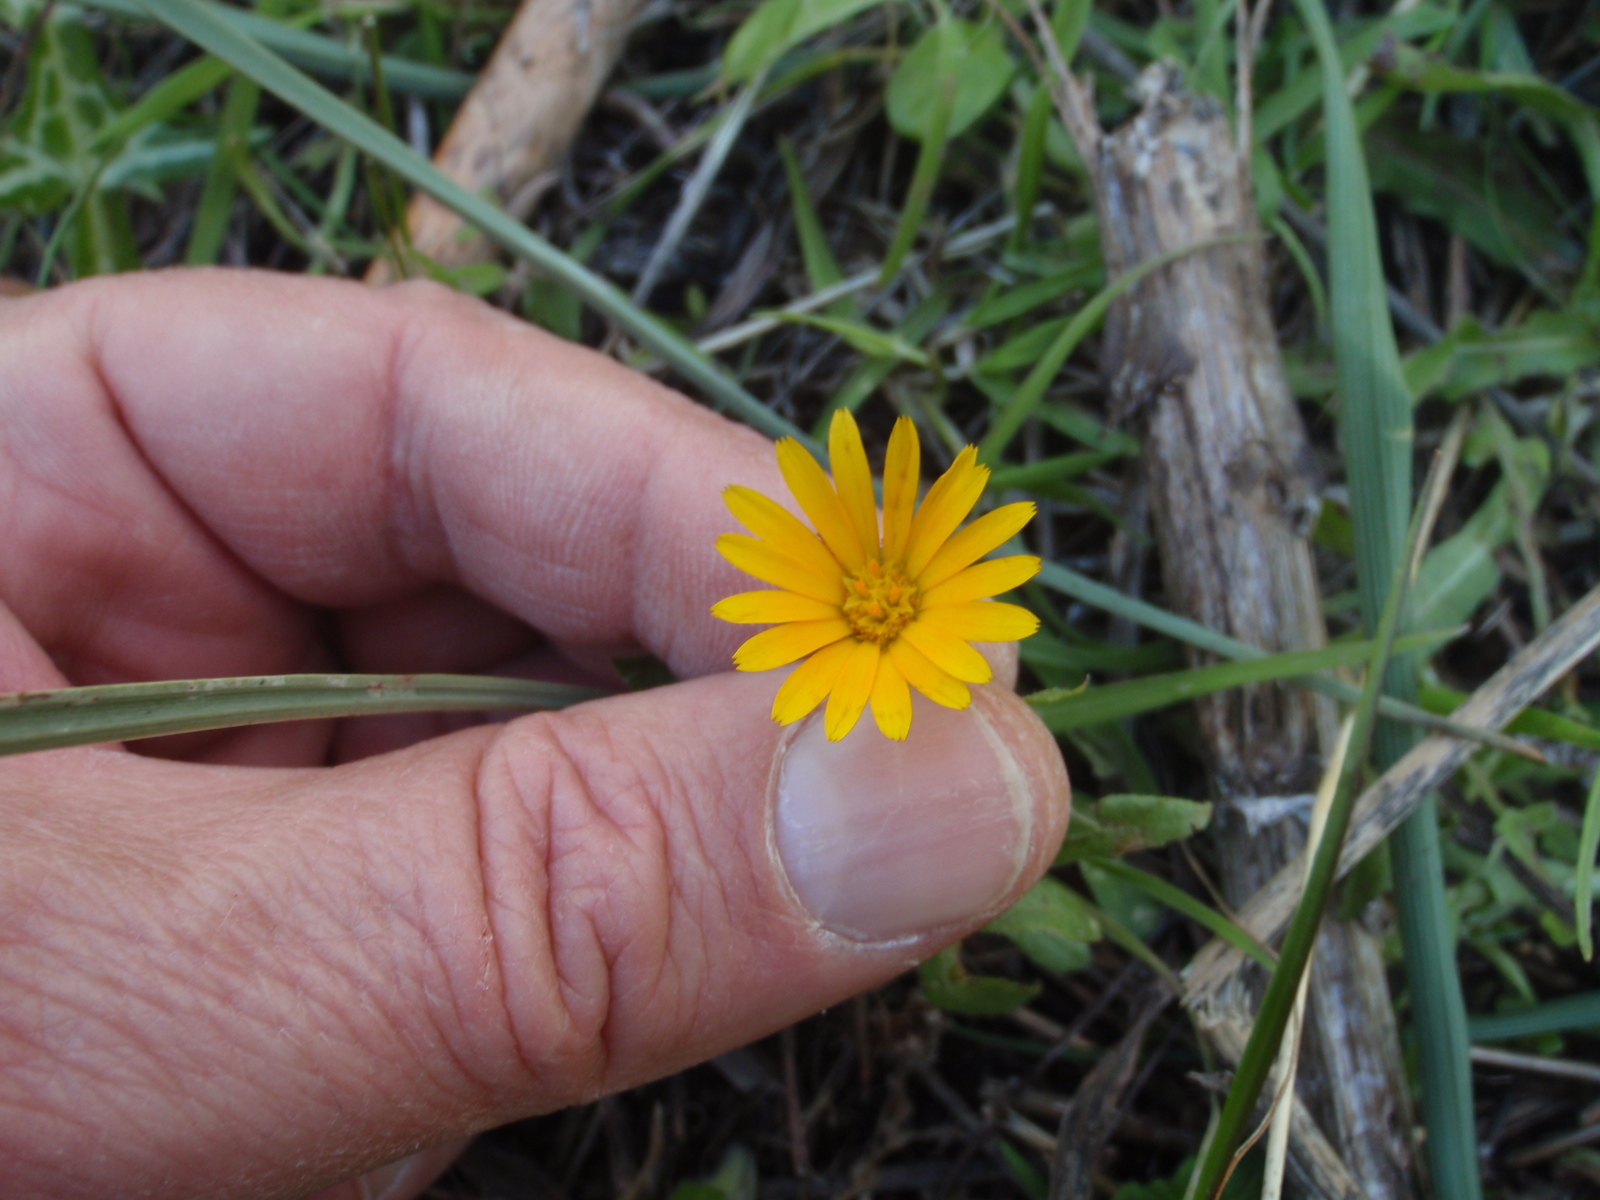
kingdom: Plantae
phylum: Tracheophyta
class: Magnoliopsida
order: Asterales
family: Asteraceae
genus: Calendula
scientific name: Calendula arvensis
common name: Field marigold
